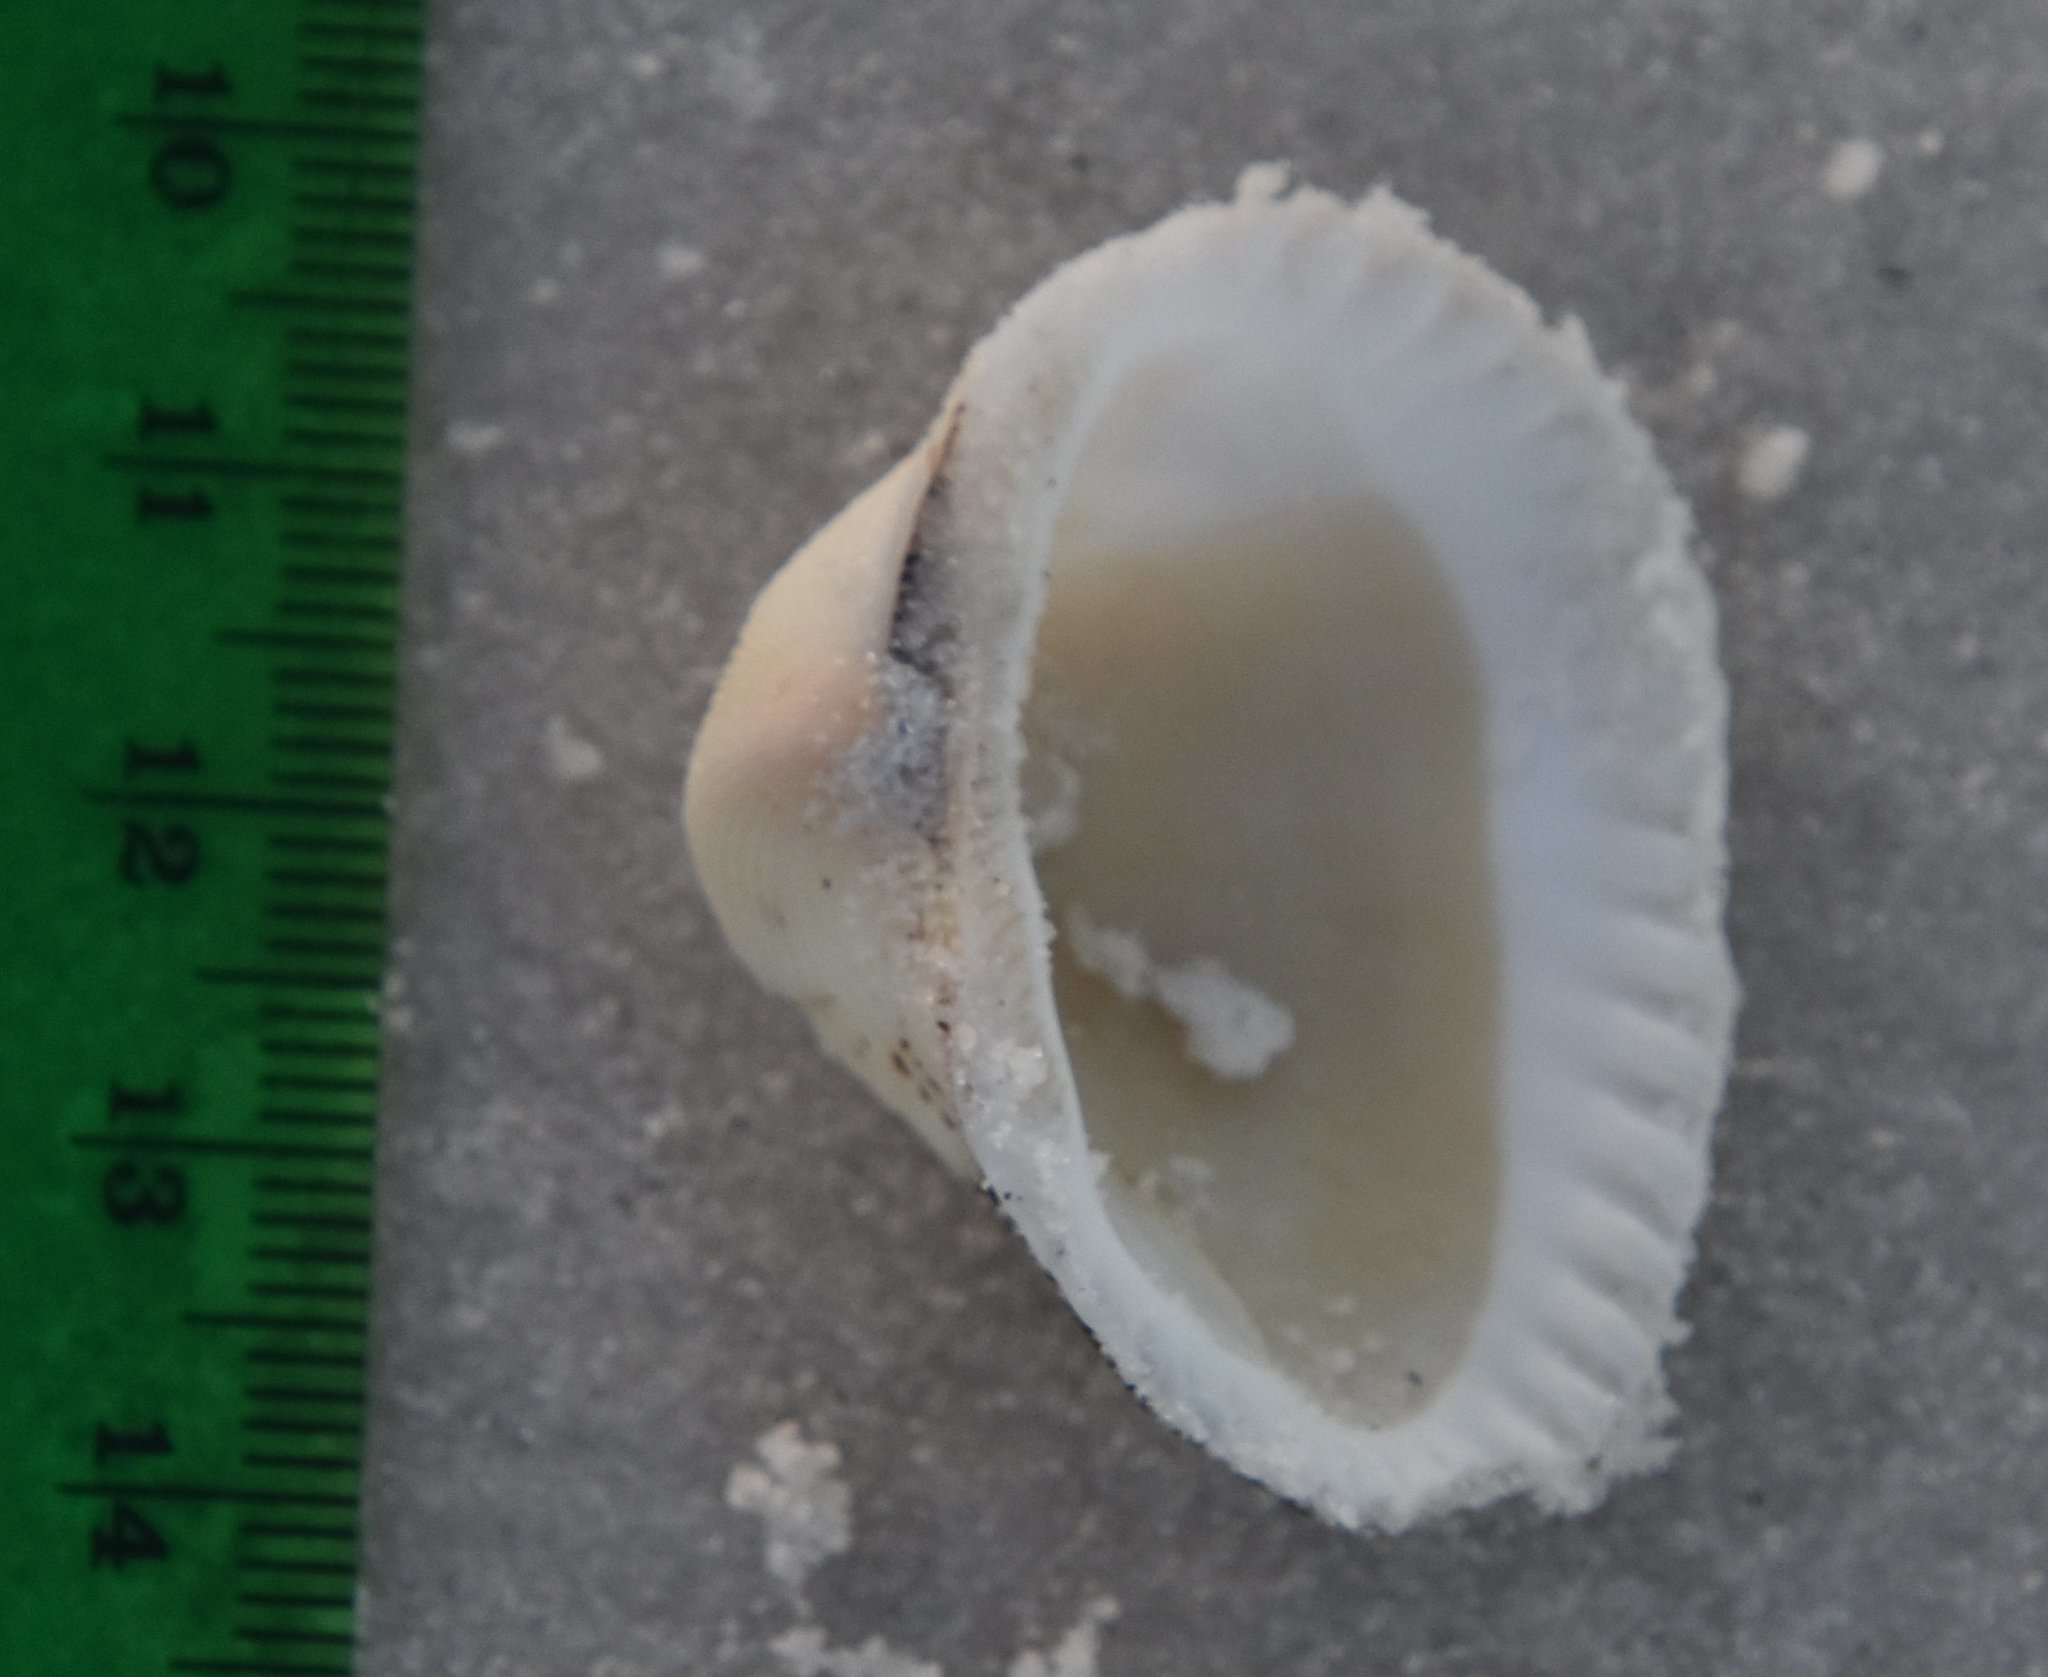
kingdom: Animalia
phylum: Mollusca
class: Bivalvia
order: Arcida
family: Noetiidae
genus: Noetia
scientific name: Noetia ponderosa
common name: Ponderous ark
